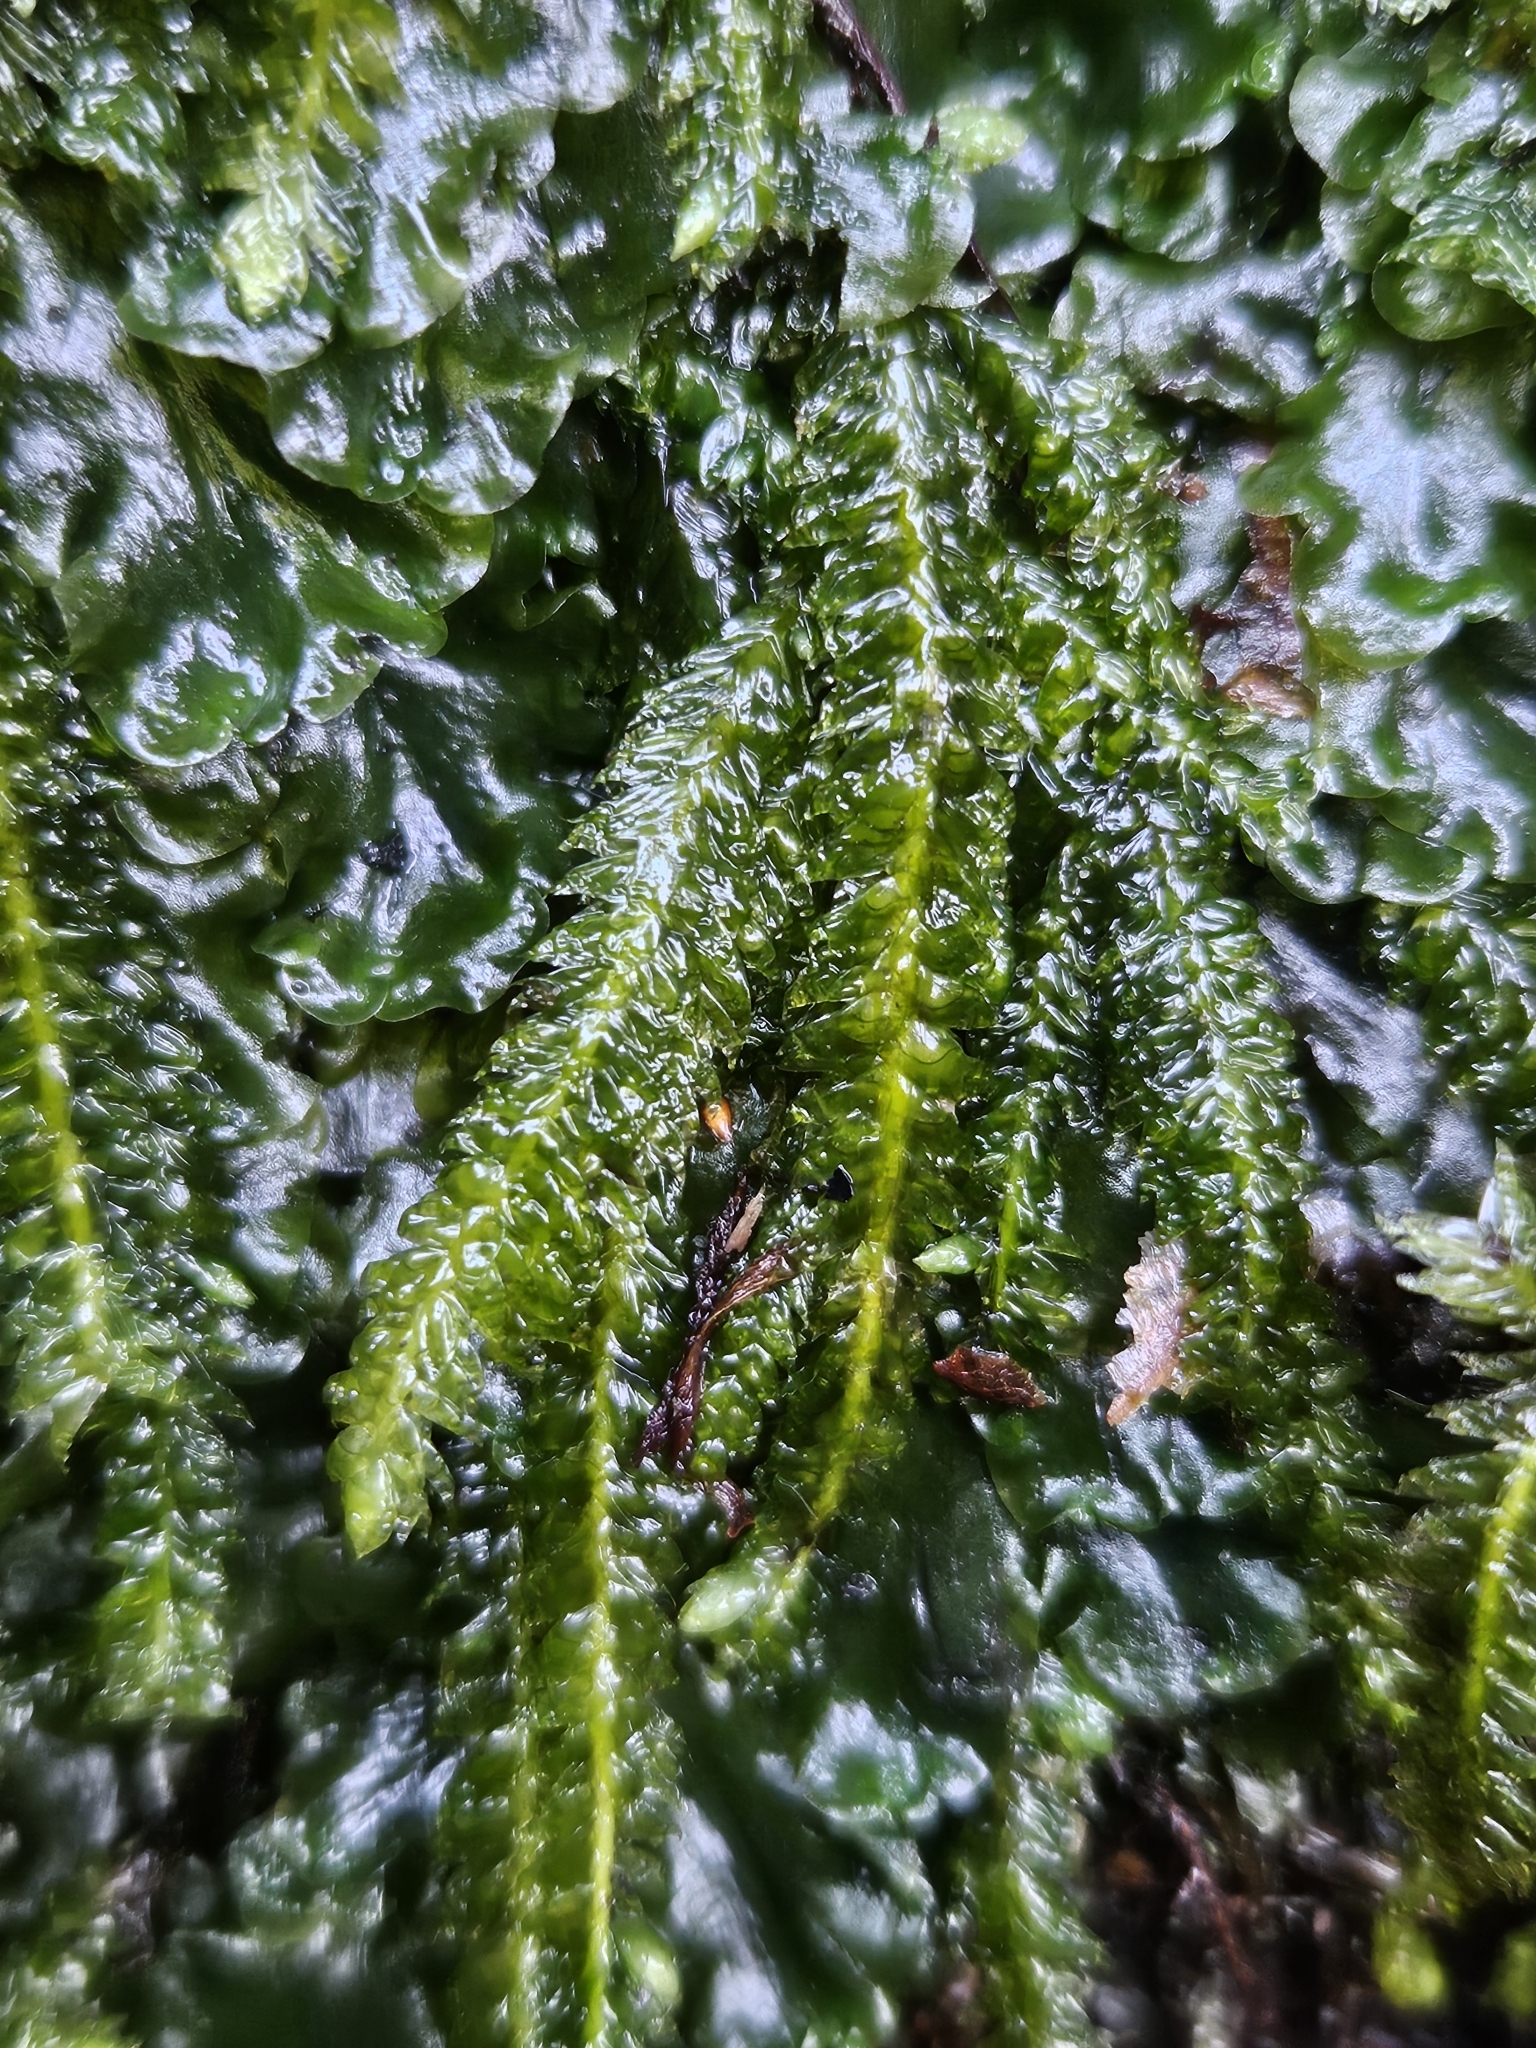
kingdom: Plantae
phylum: Bryophyta
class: Bryopsida
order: Hypnales
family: Plagiotheciaceae
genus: Plagiothecium
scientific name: Plagiothecium undulatum
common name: Waved silk-moss
